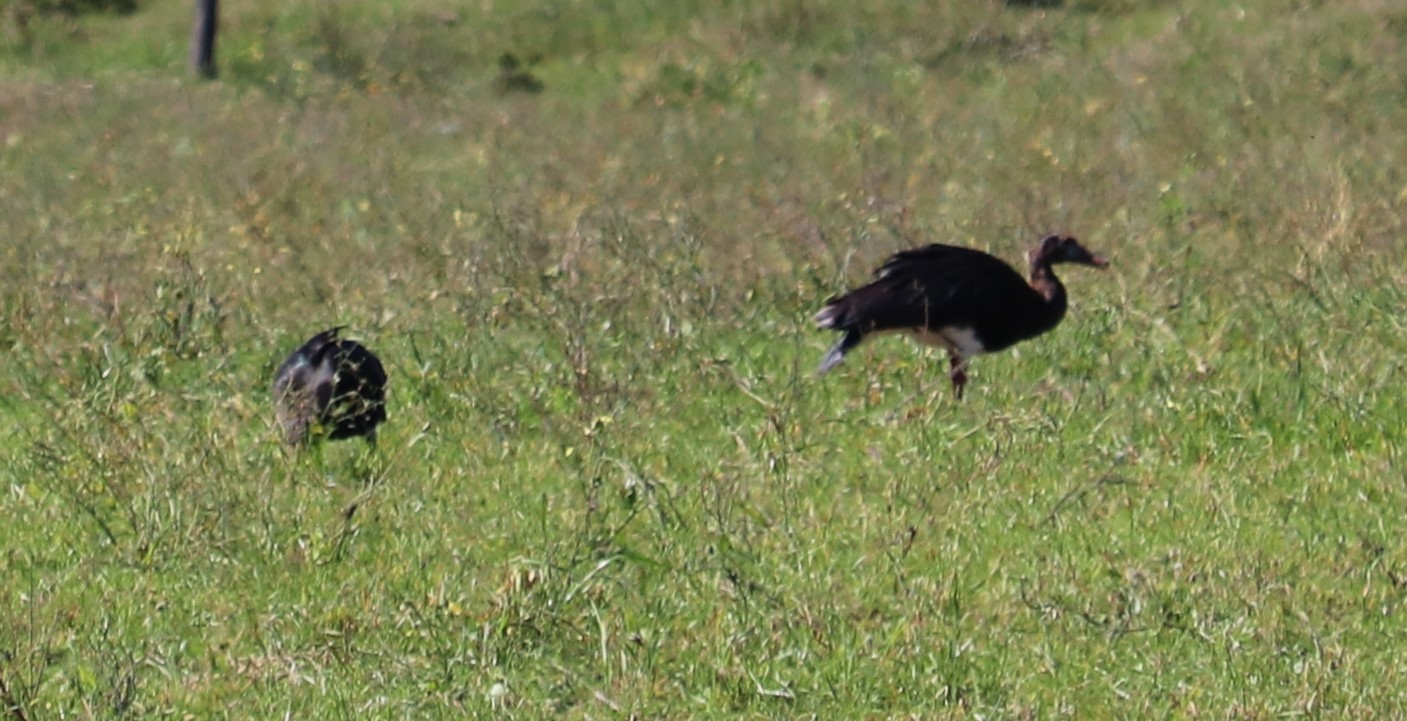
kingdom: Animalia
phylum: Chordata
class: Aves
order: Anseriformes
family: Anatidae
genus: Plectropterus
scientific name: Plectropterus gambensis
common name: Spur-winged goose
